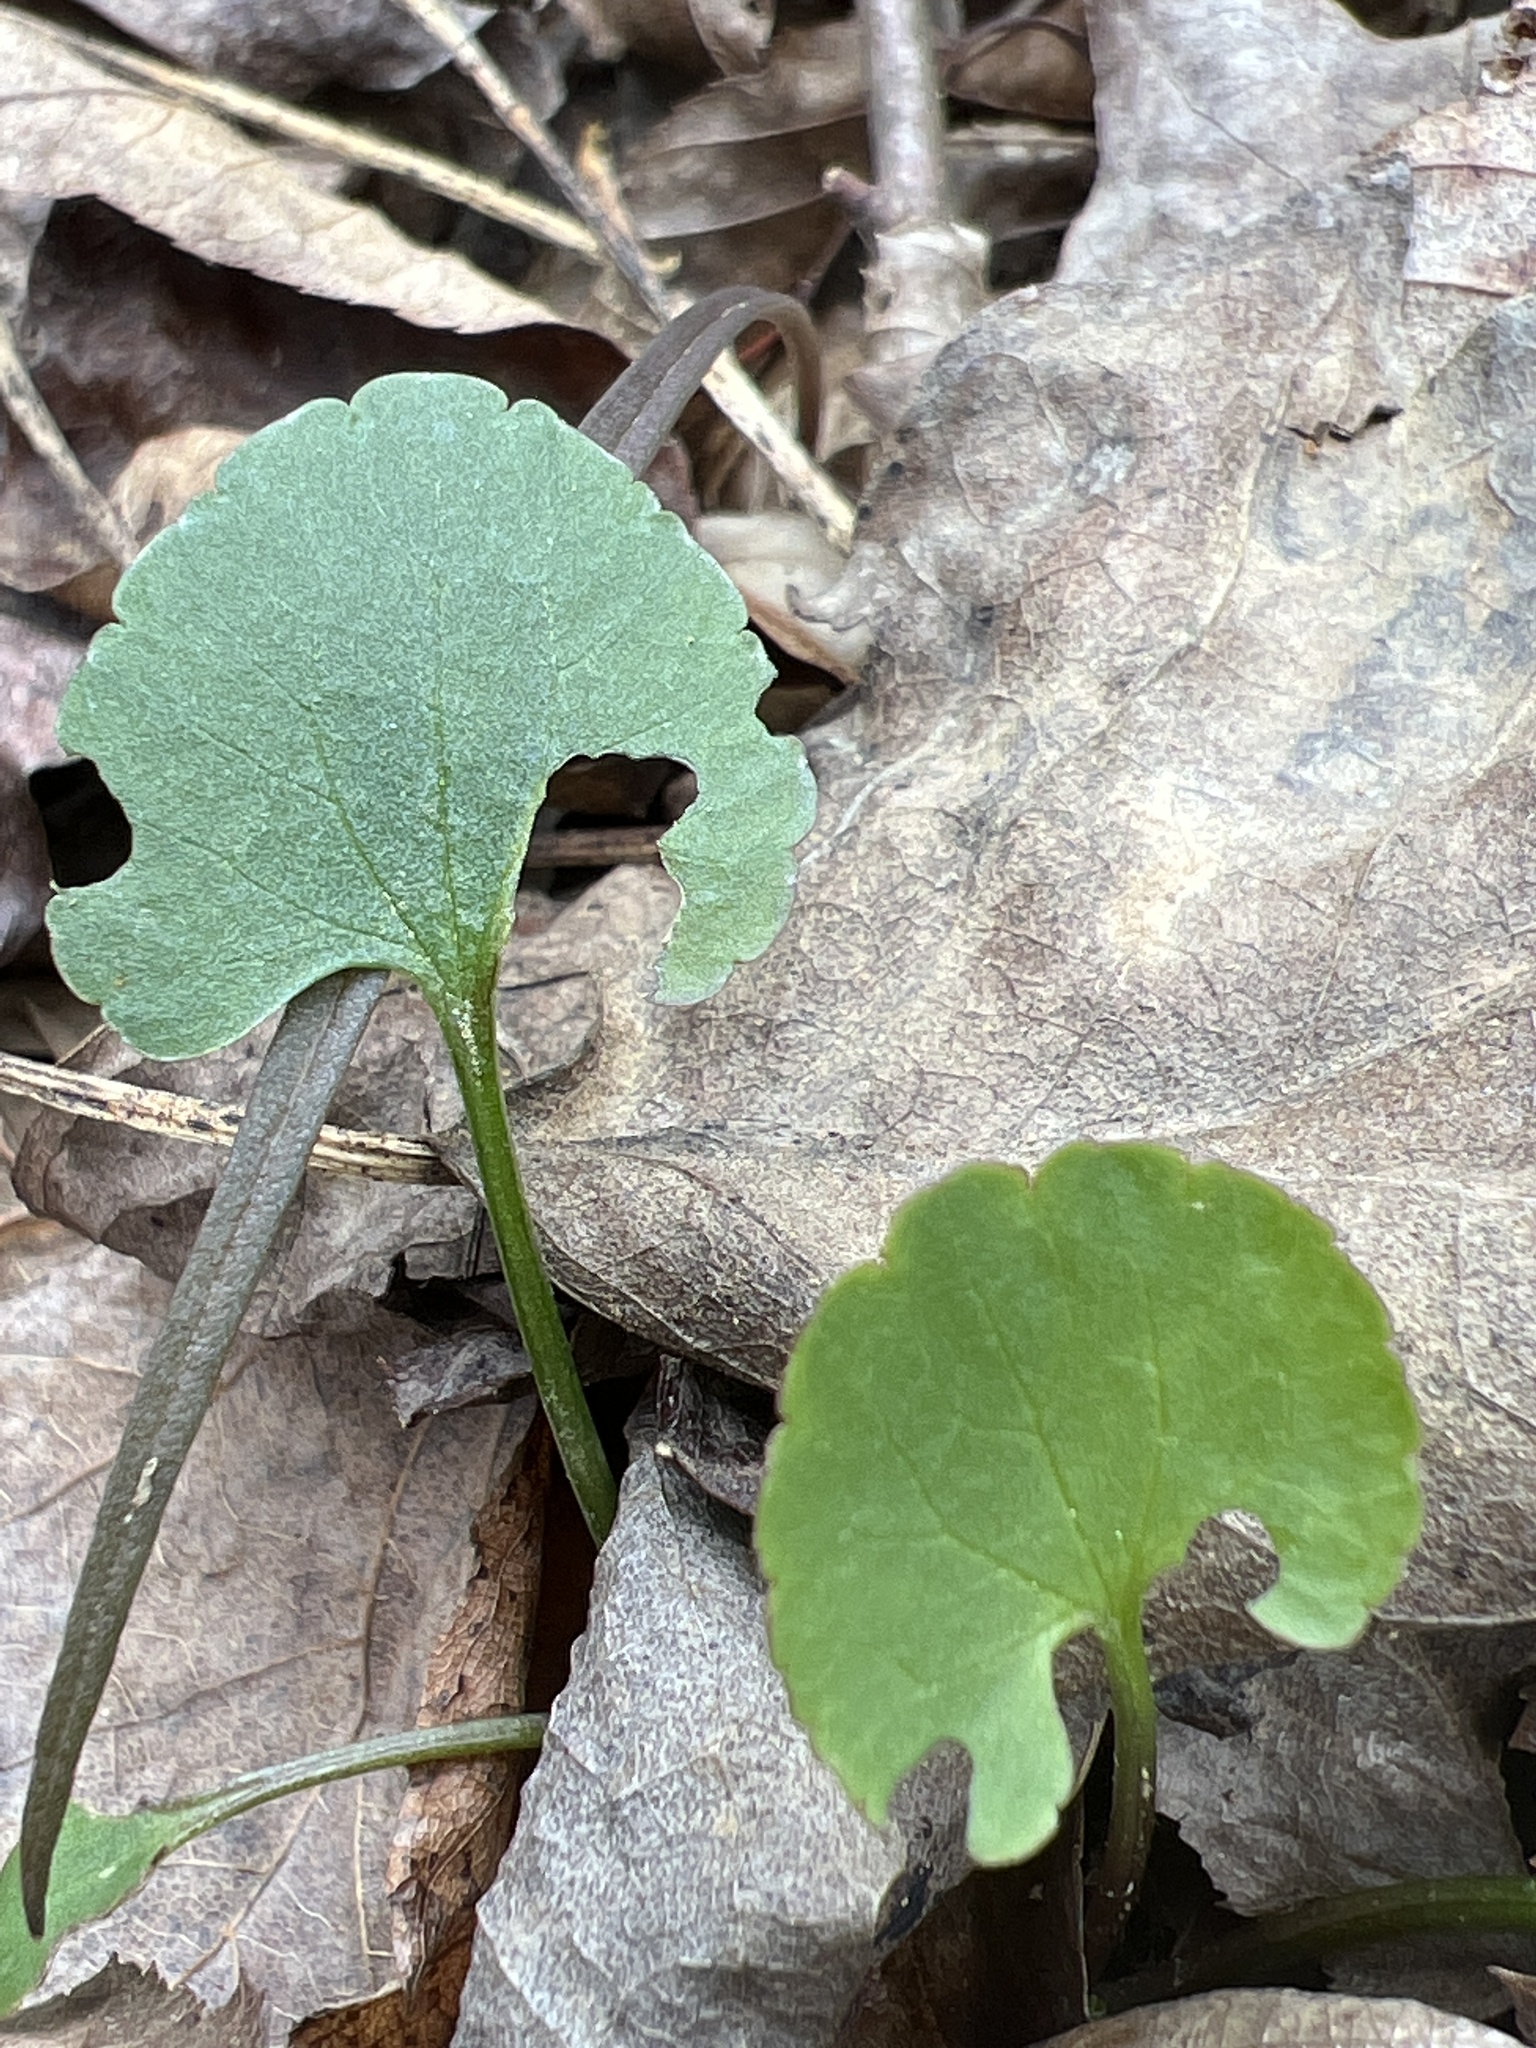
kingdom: Plantae
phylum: Tracheophyta
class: Magnoliopsida
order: Ranunculales
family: Ranunculaceae
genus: Ranunculus
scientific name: Ranunculus abortivus
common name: Early wood buttercup
